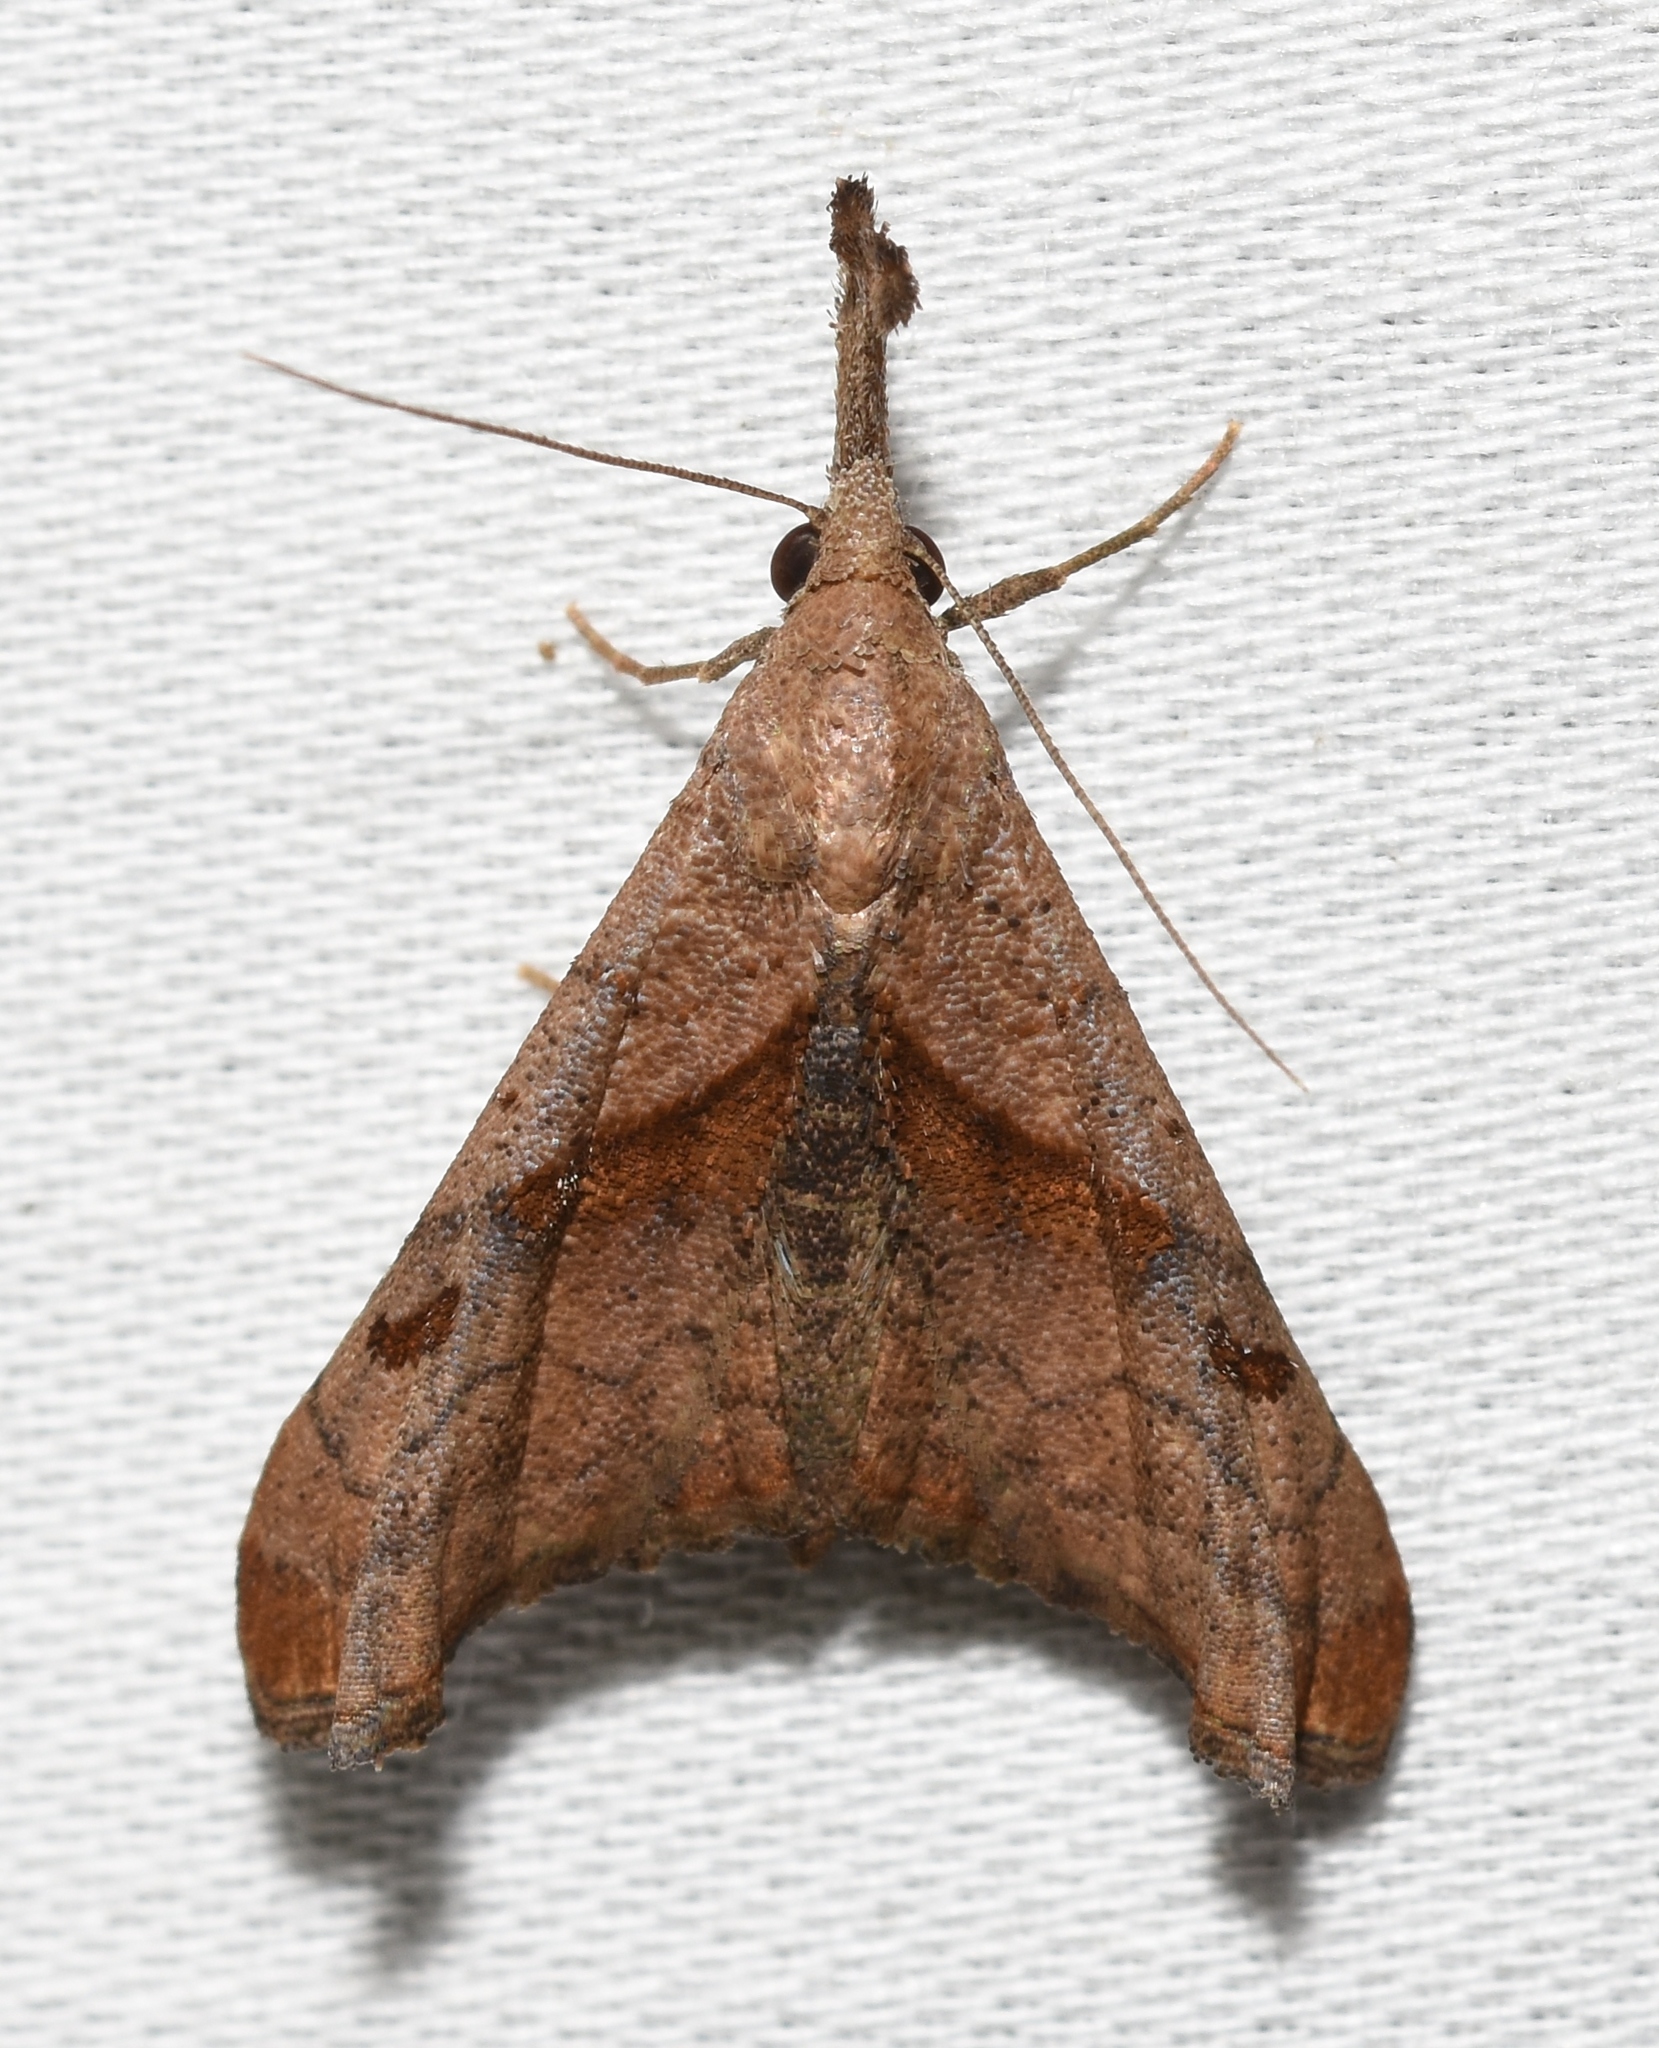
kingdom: Animalia
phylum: Arthropoda
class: Insecta
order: Lepidoptera
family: Erebidae
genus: Palthis
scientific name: Palthis angulalis
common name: Dark-spotted palthis moth
